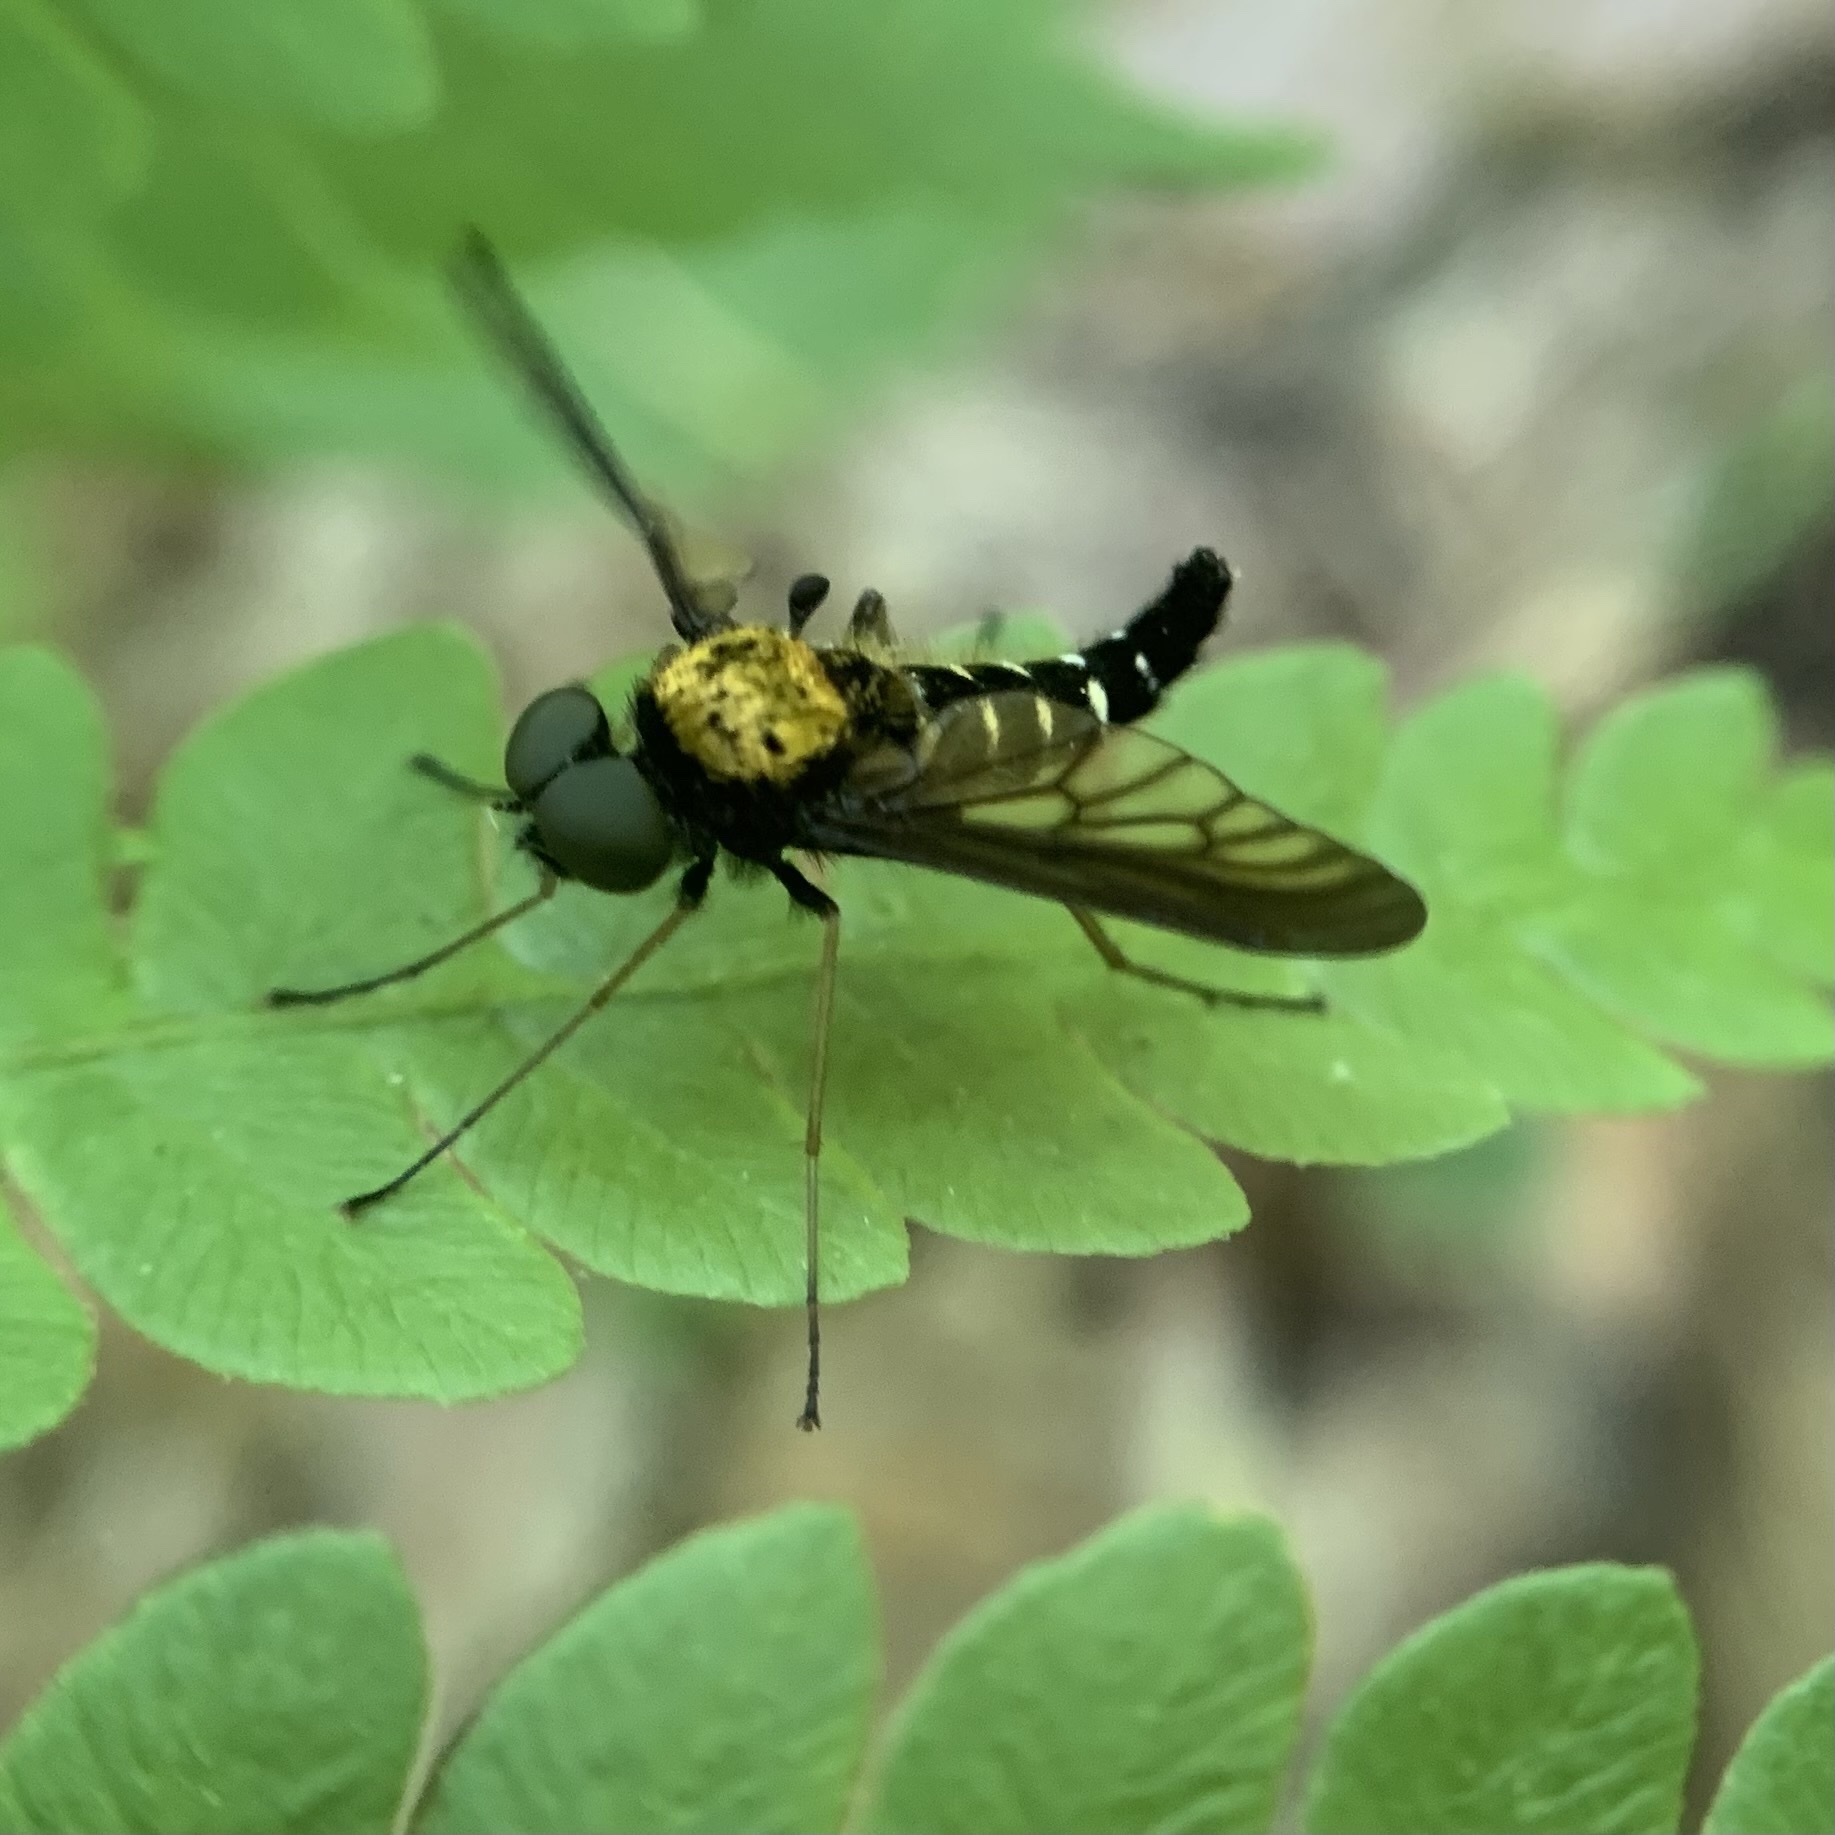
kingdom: Animalia
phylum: Arthropoda
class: Insecta
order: Diptera
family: Rhagionidae
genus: Chrysopilus
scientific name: Chrysopilus thoracicus
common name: Golden-backed snipe fly
